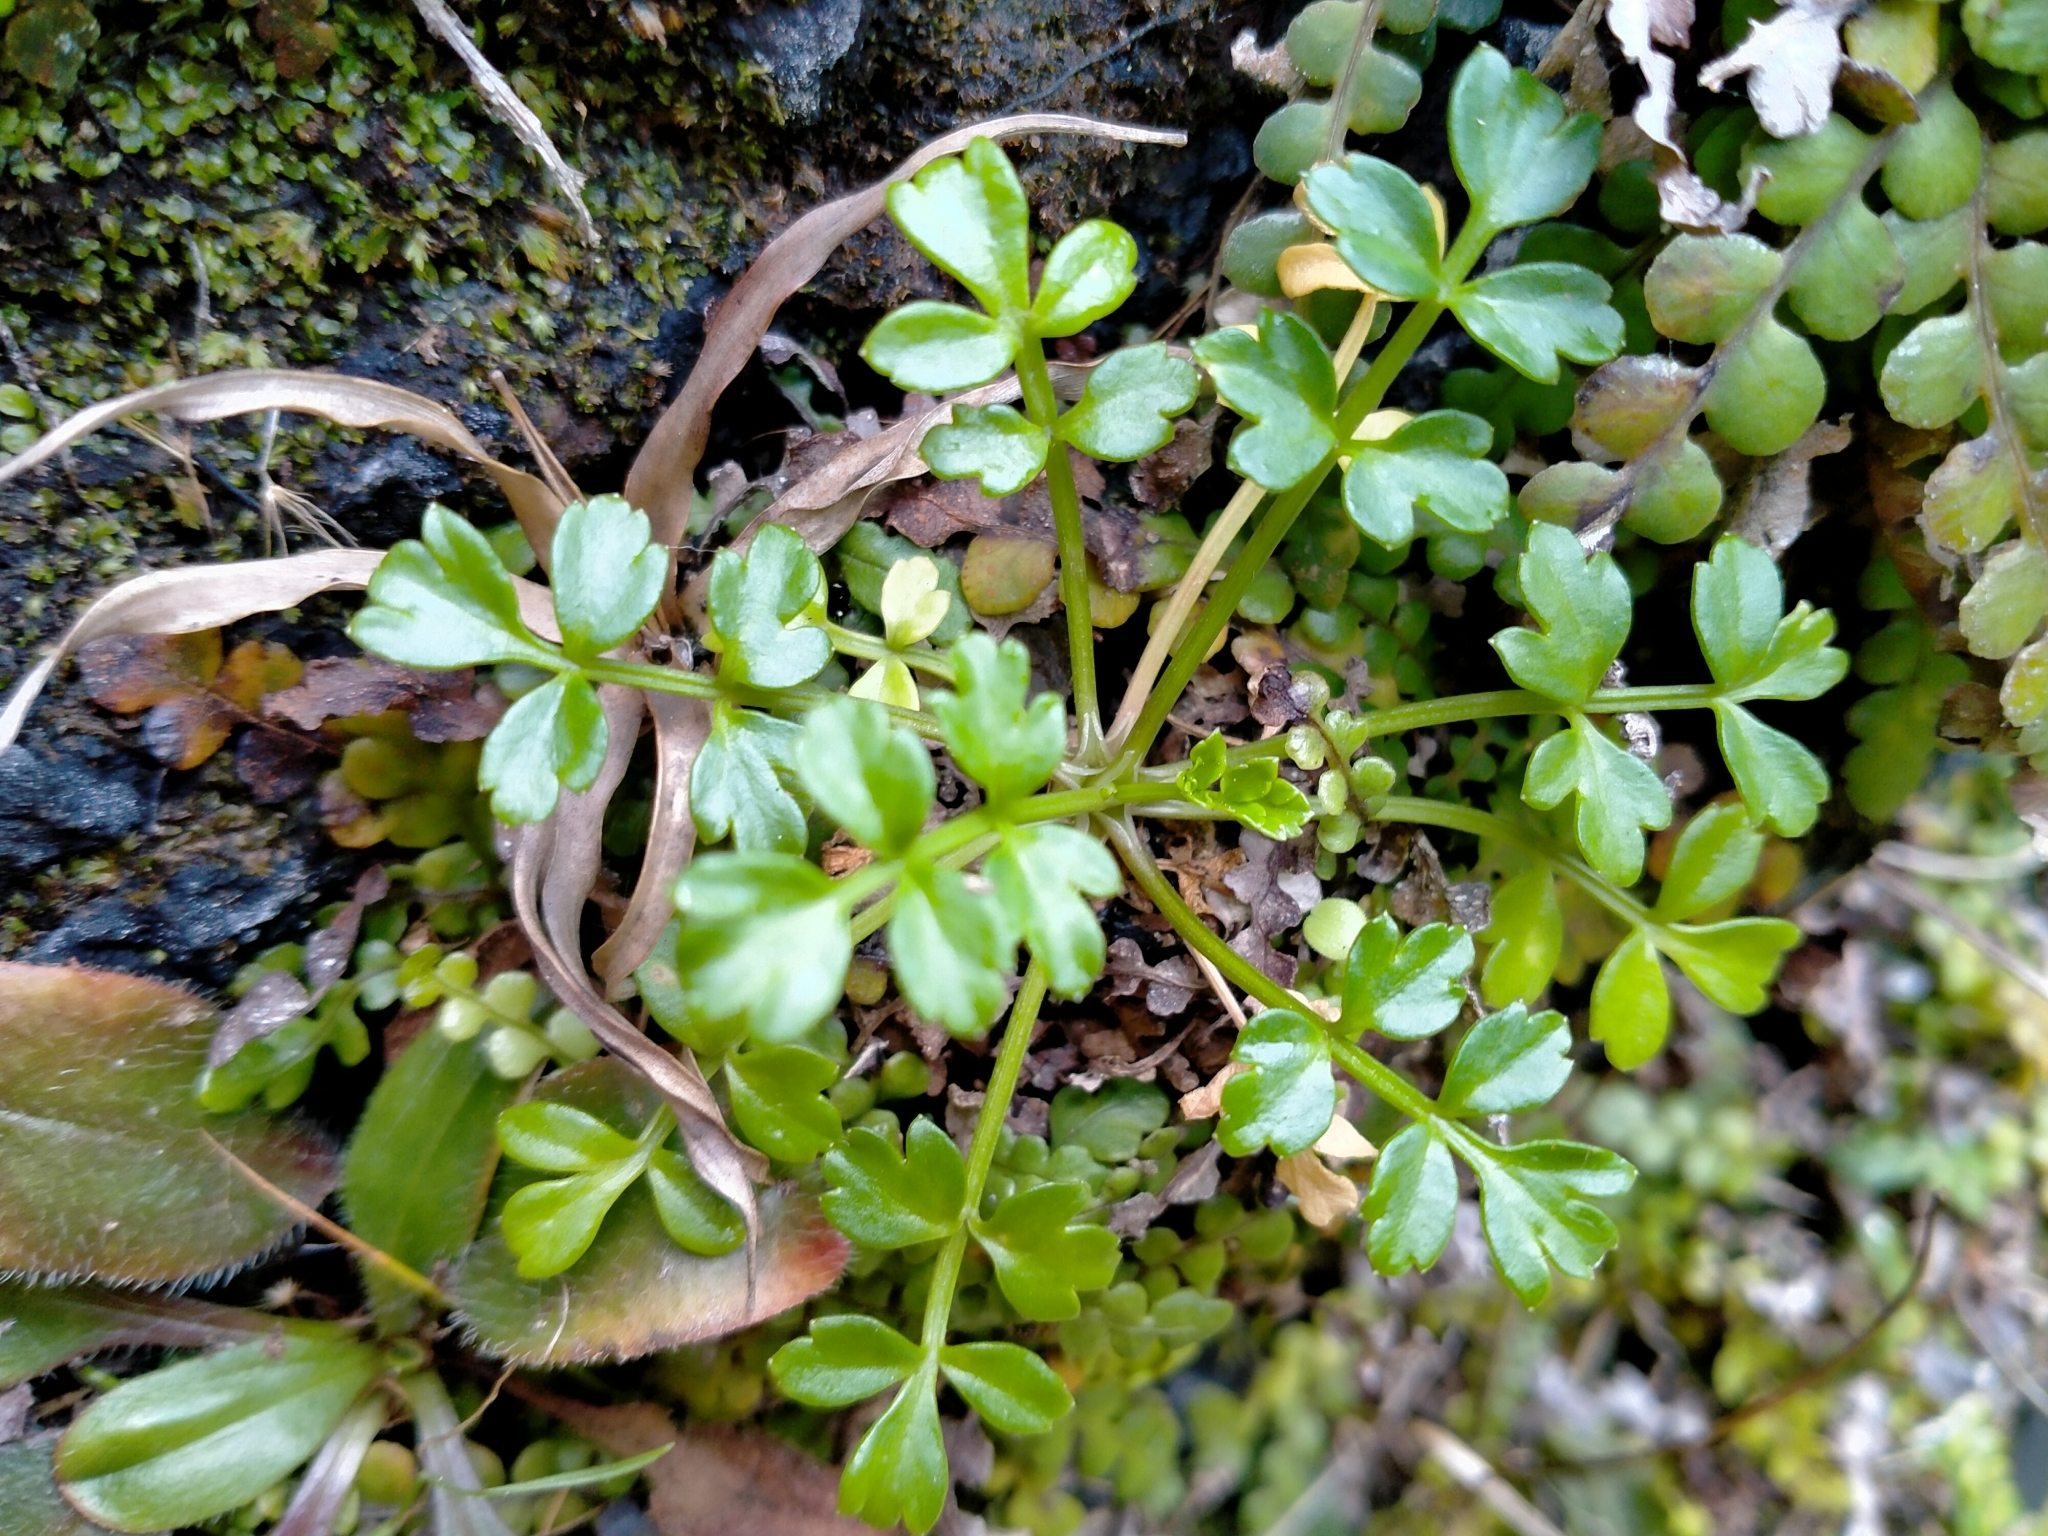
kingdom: Plantae
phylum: Tracheophyta
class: Magnoliopsida
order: Apiales
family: Apiaceae
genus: Apium
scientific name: Apium prostratum
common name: Prostrate marshwort
